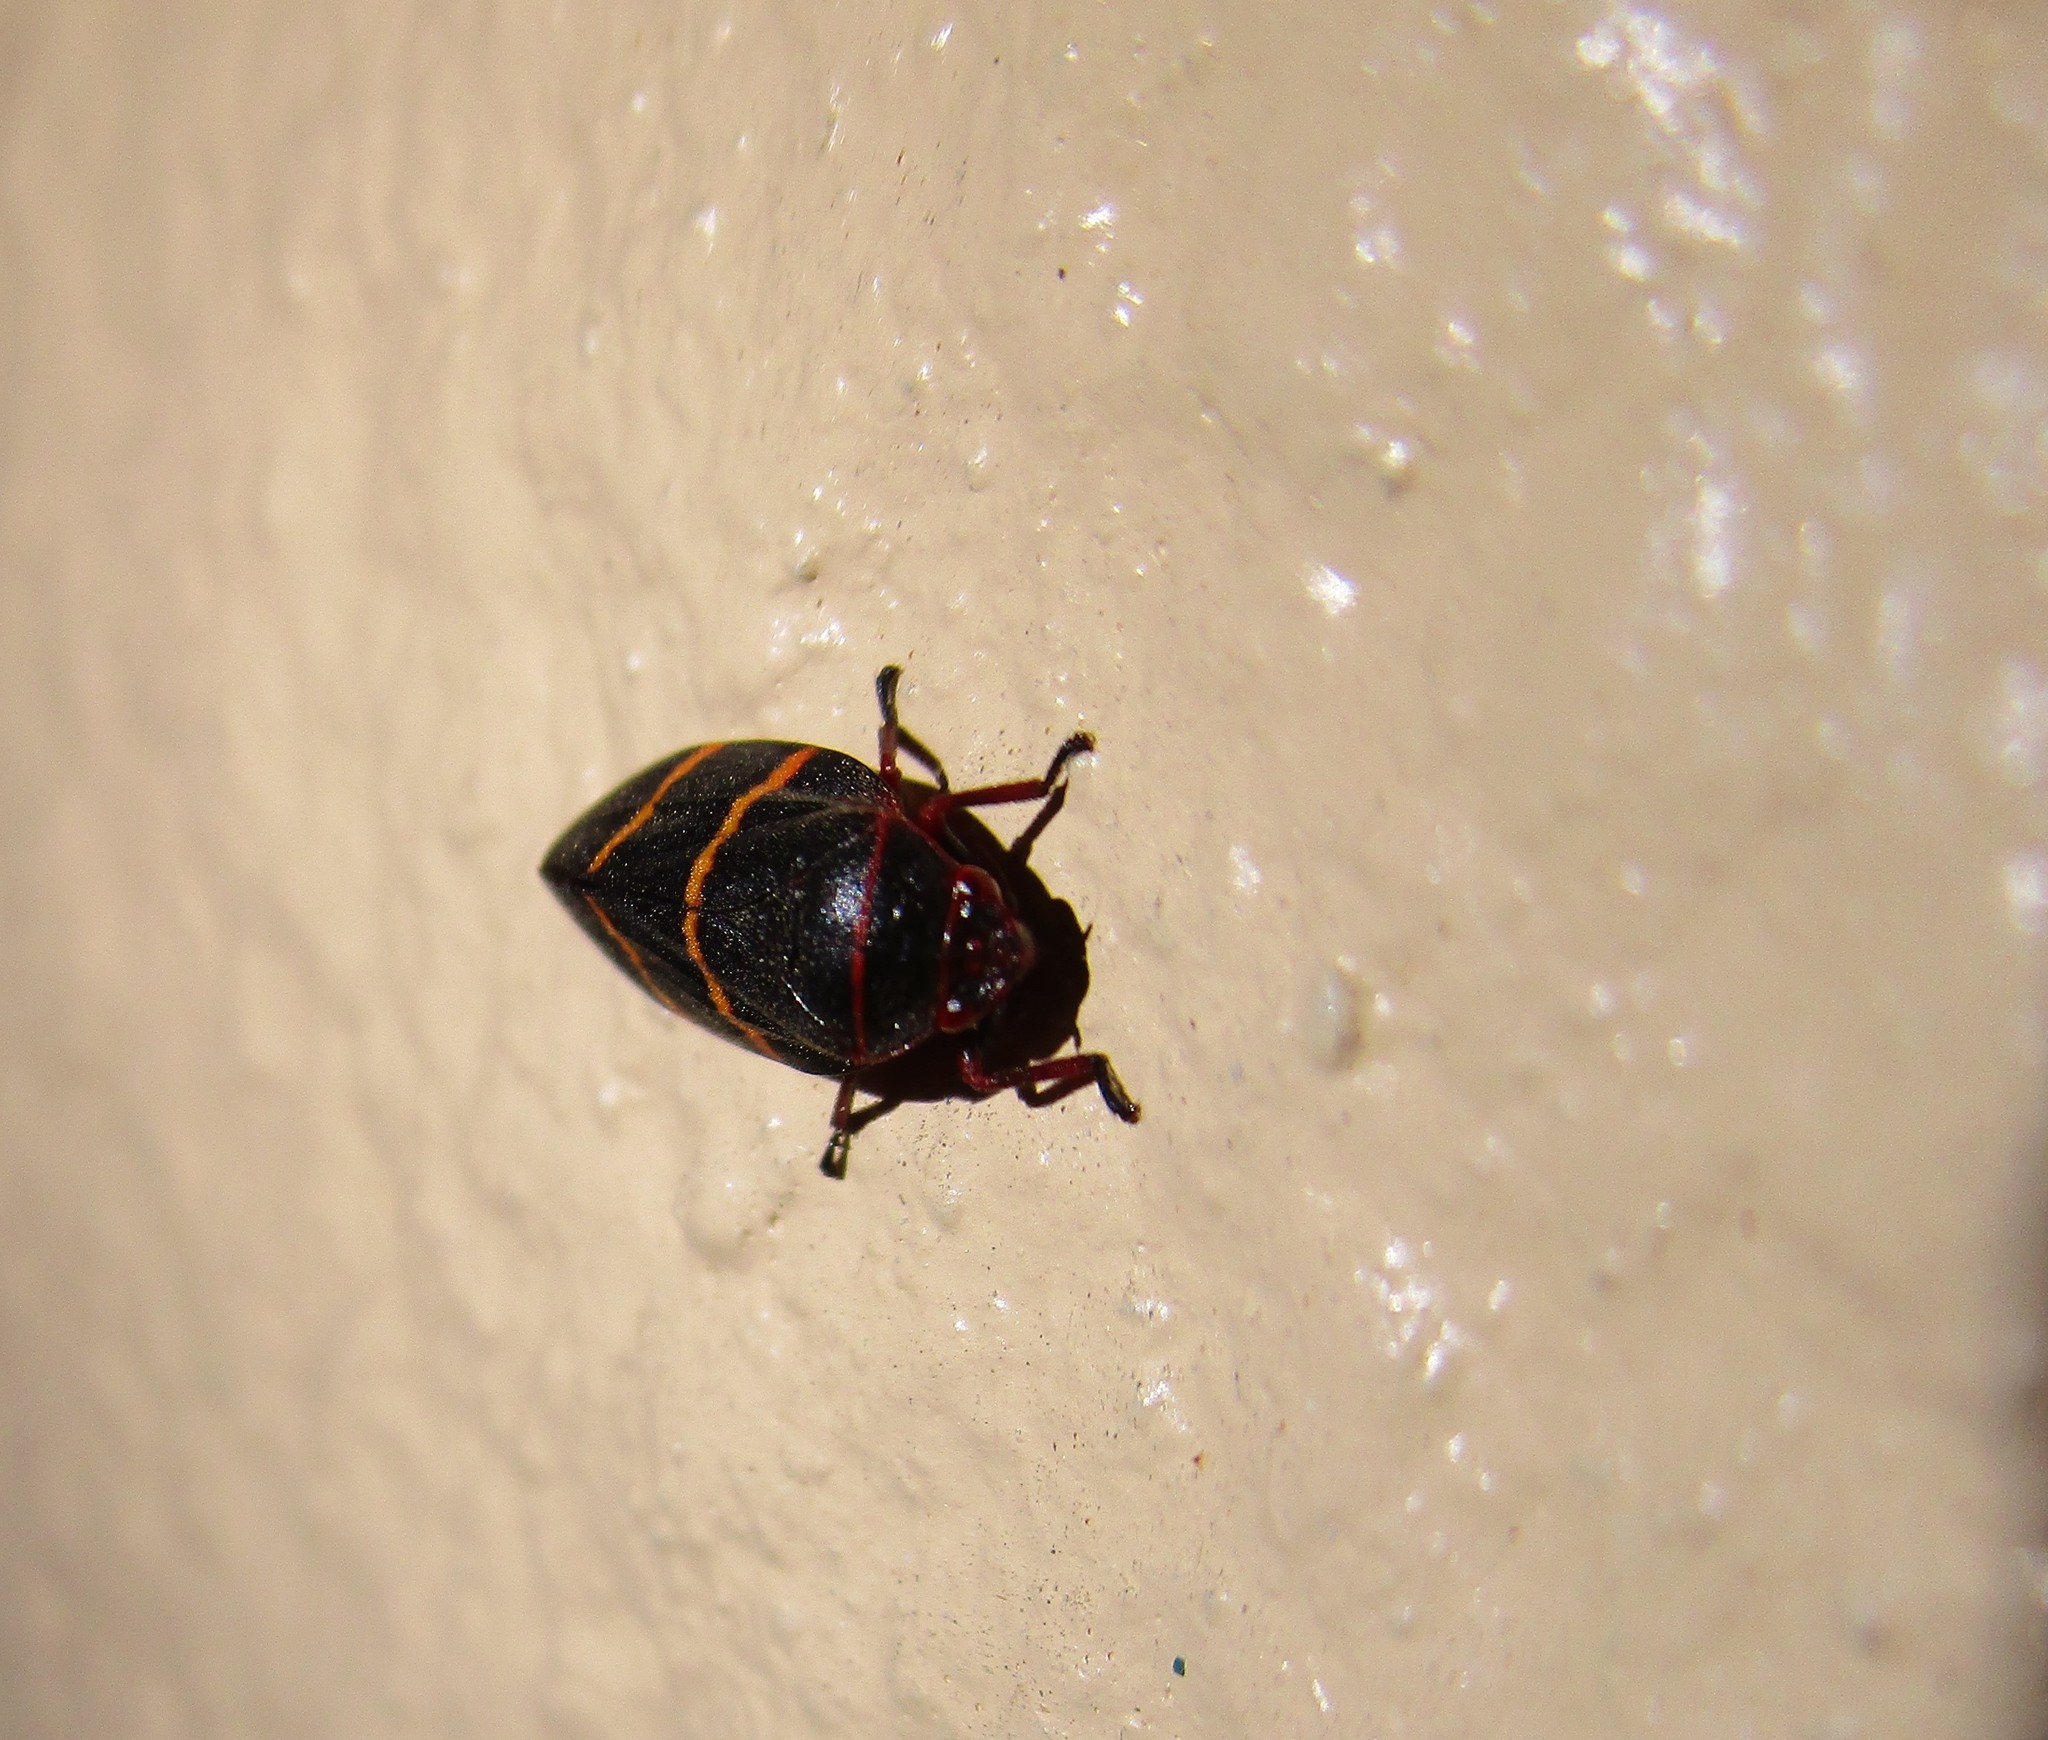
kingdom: Animalia
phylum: Arthropoda
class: Insecta
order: Hemiptera
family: Cercopidae
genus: Prosapia
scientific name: Prosapia bicincta
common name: Twolined spittlebug
